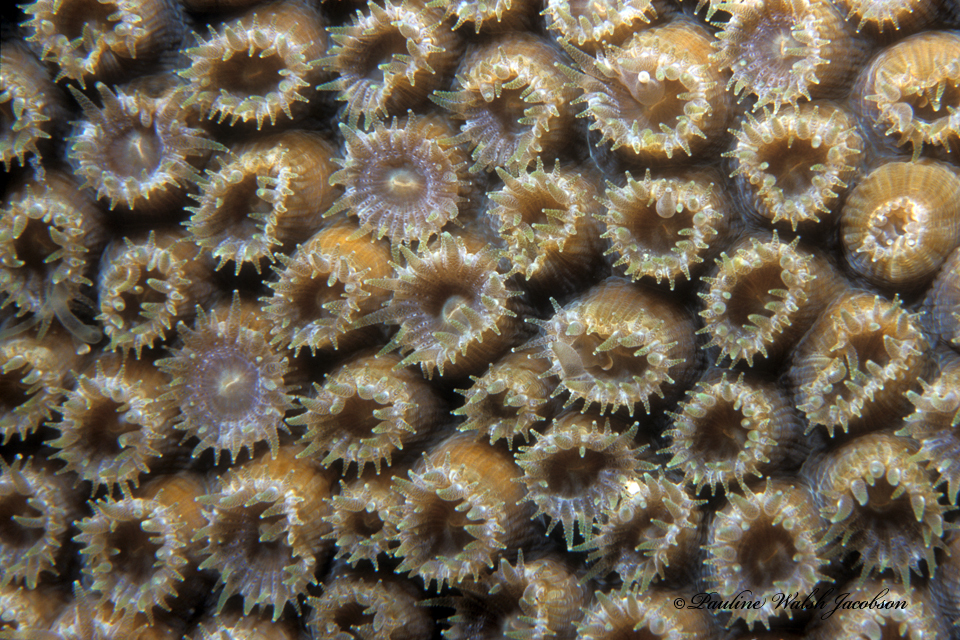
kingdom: Animalia
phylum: Cnidaria
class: Anthozoa
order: Scleractinia
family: Montastraeidae
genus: Montastraea
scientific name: Montastraea cavernosa
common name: Great star coral
